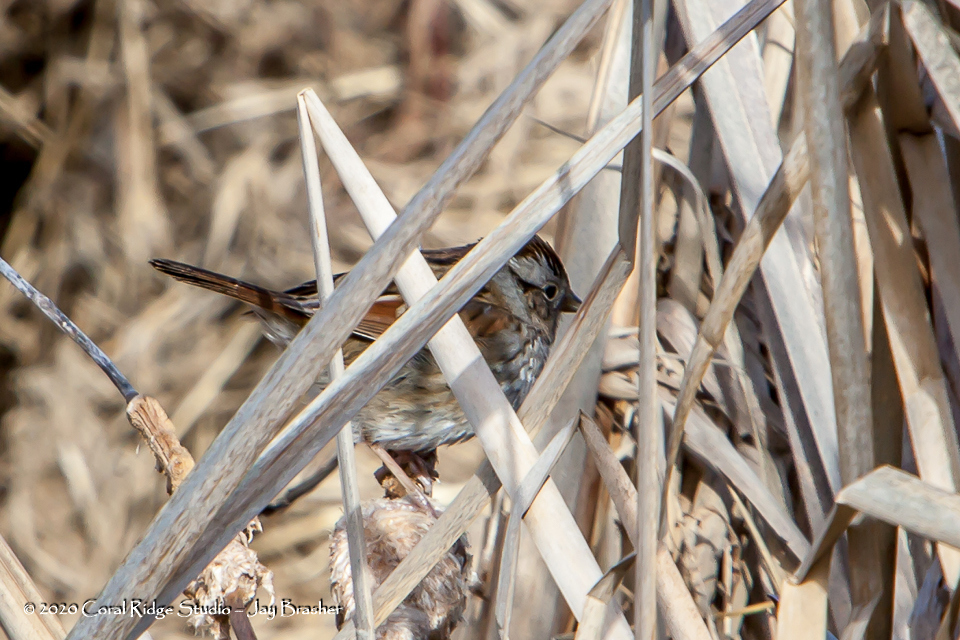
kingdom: Animalia
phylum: Chordata
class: Aves
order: Passeriformes
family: Passerellidae
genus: Melospiza
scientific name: Melospiza georgiana
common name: Swamp sparrow
